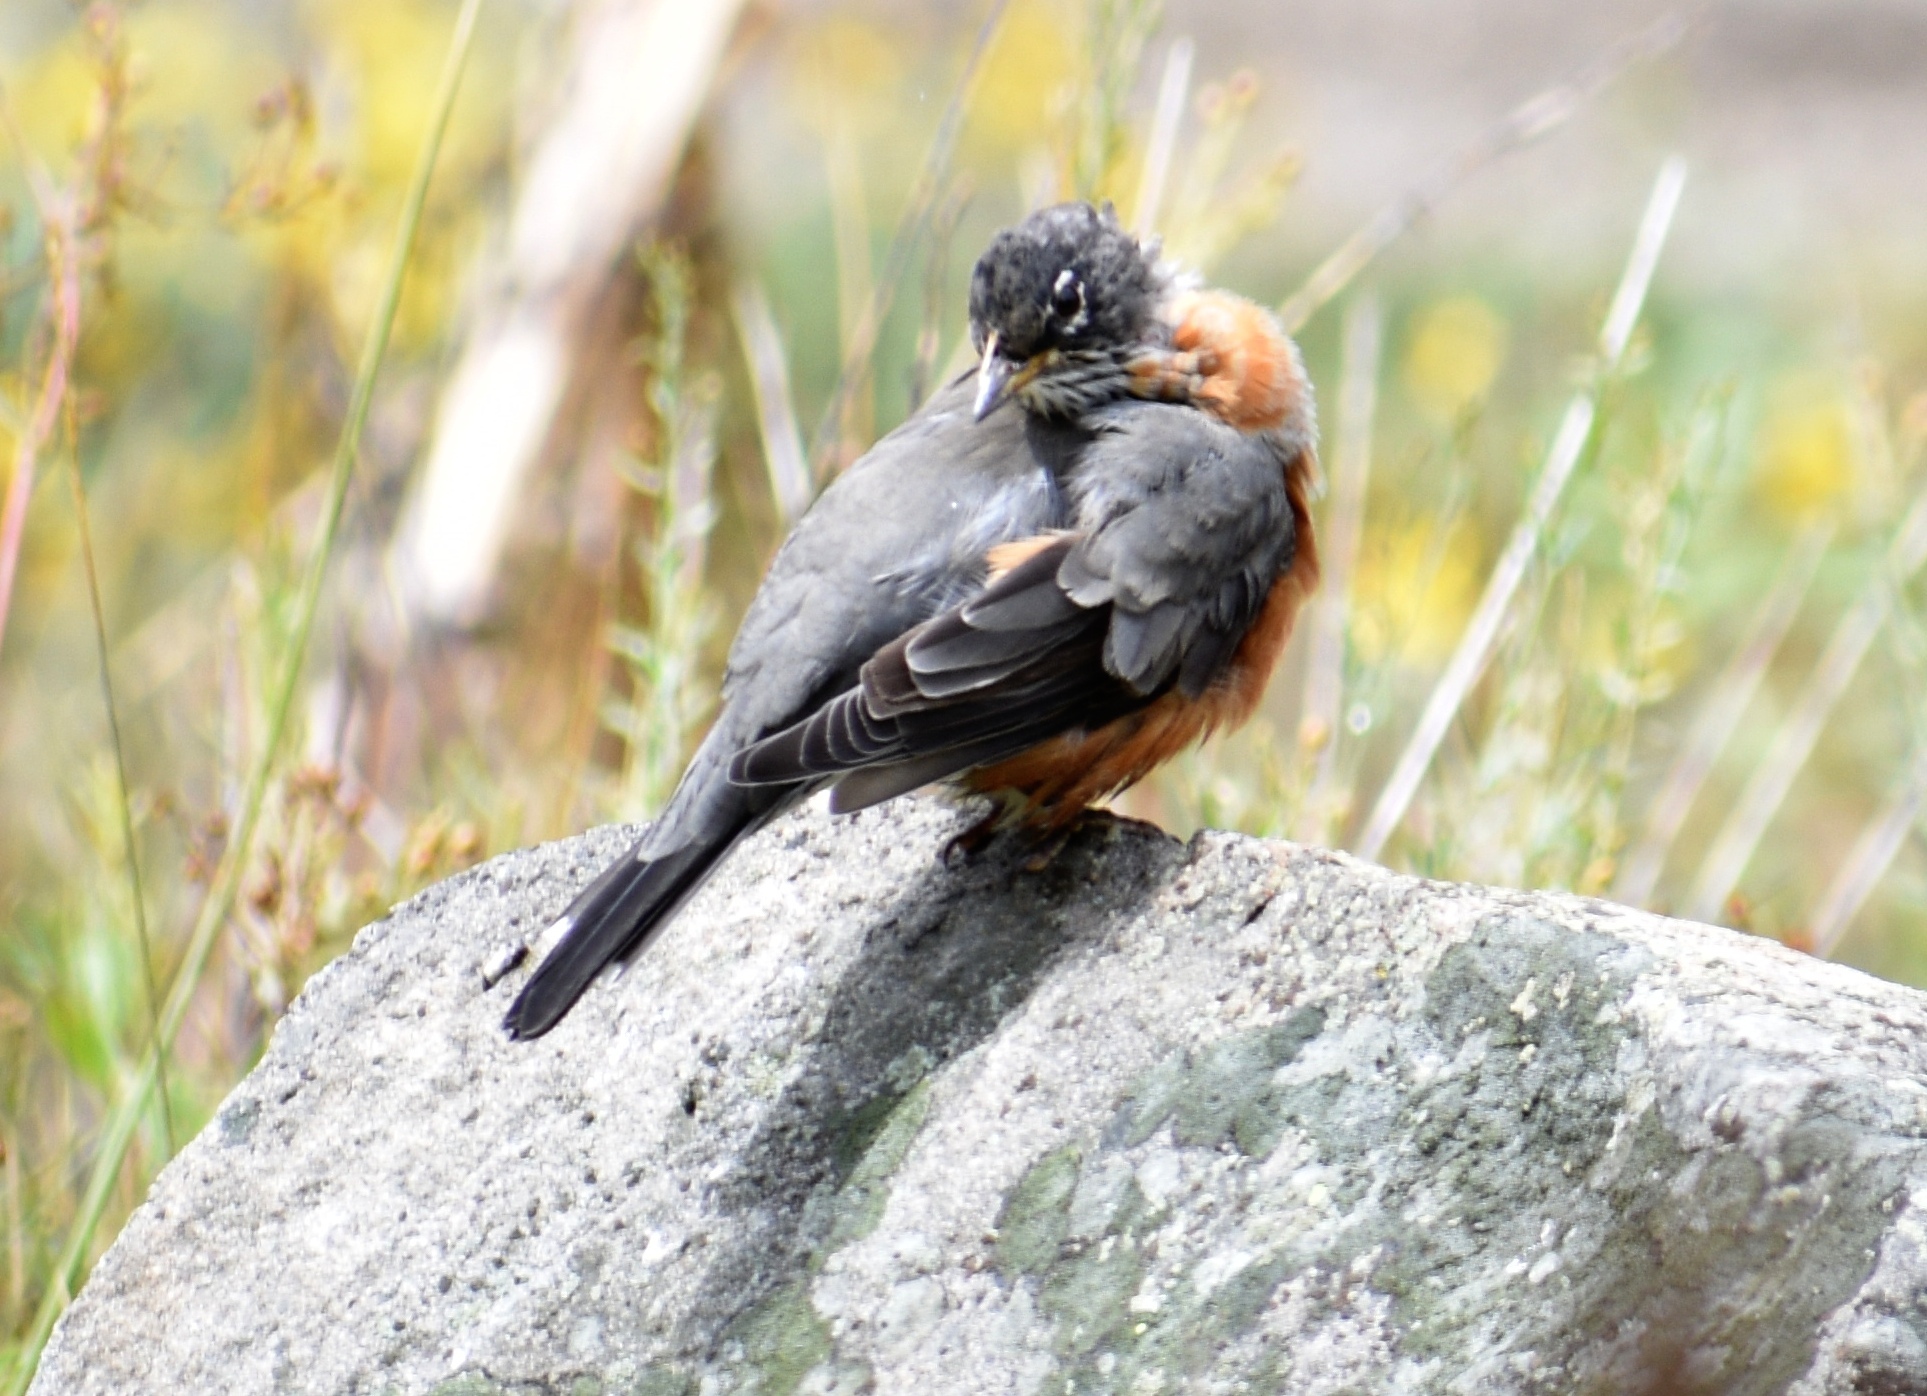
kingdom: Animalia
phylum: Chordata
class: Aves
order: Passeriformes
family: Turdidae
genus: Turdus
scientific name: Turdus migratorius
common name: American robin
